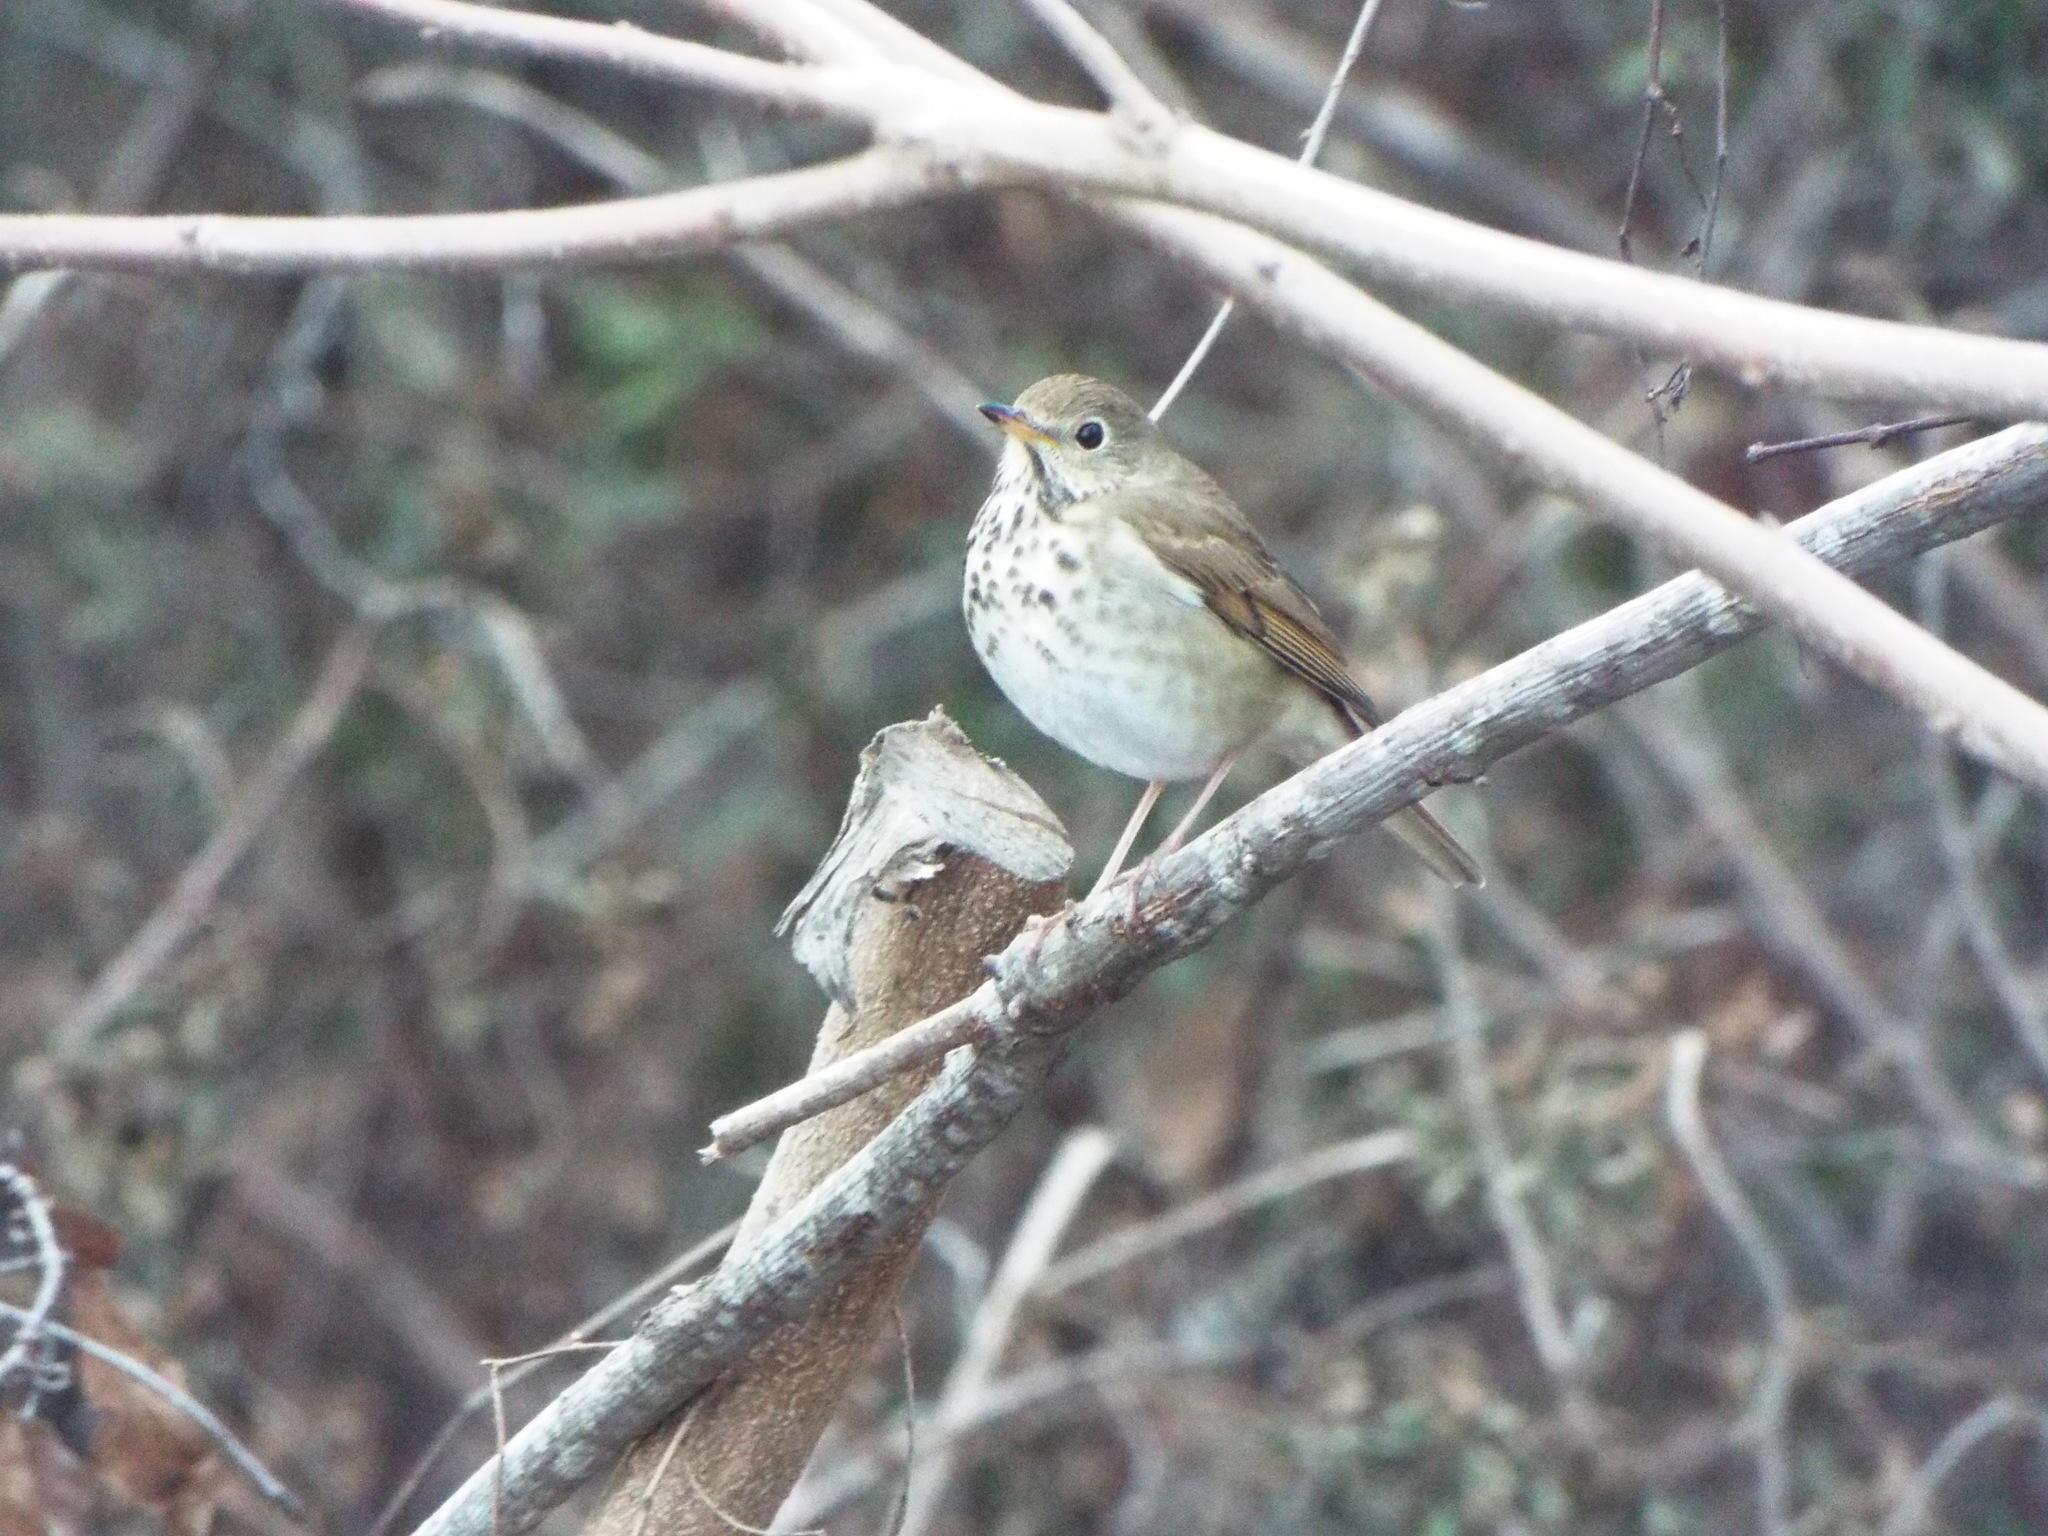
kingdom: Animalia
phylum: Chordata
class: Aves
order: Passeriformes
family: Turdidae
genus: Catharus
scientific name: Catharus guttatus
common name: Hermit thrush
